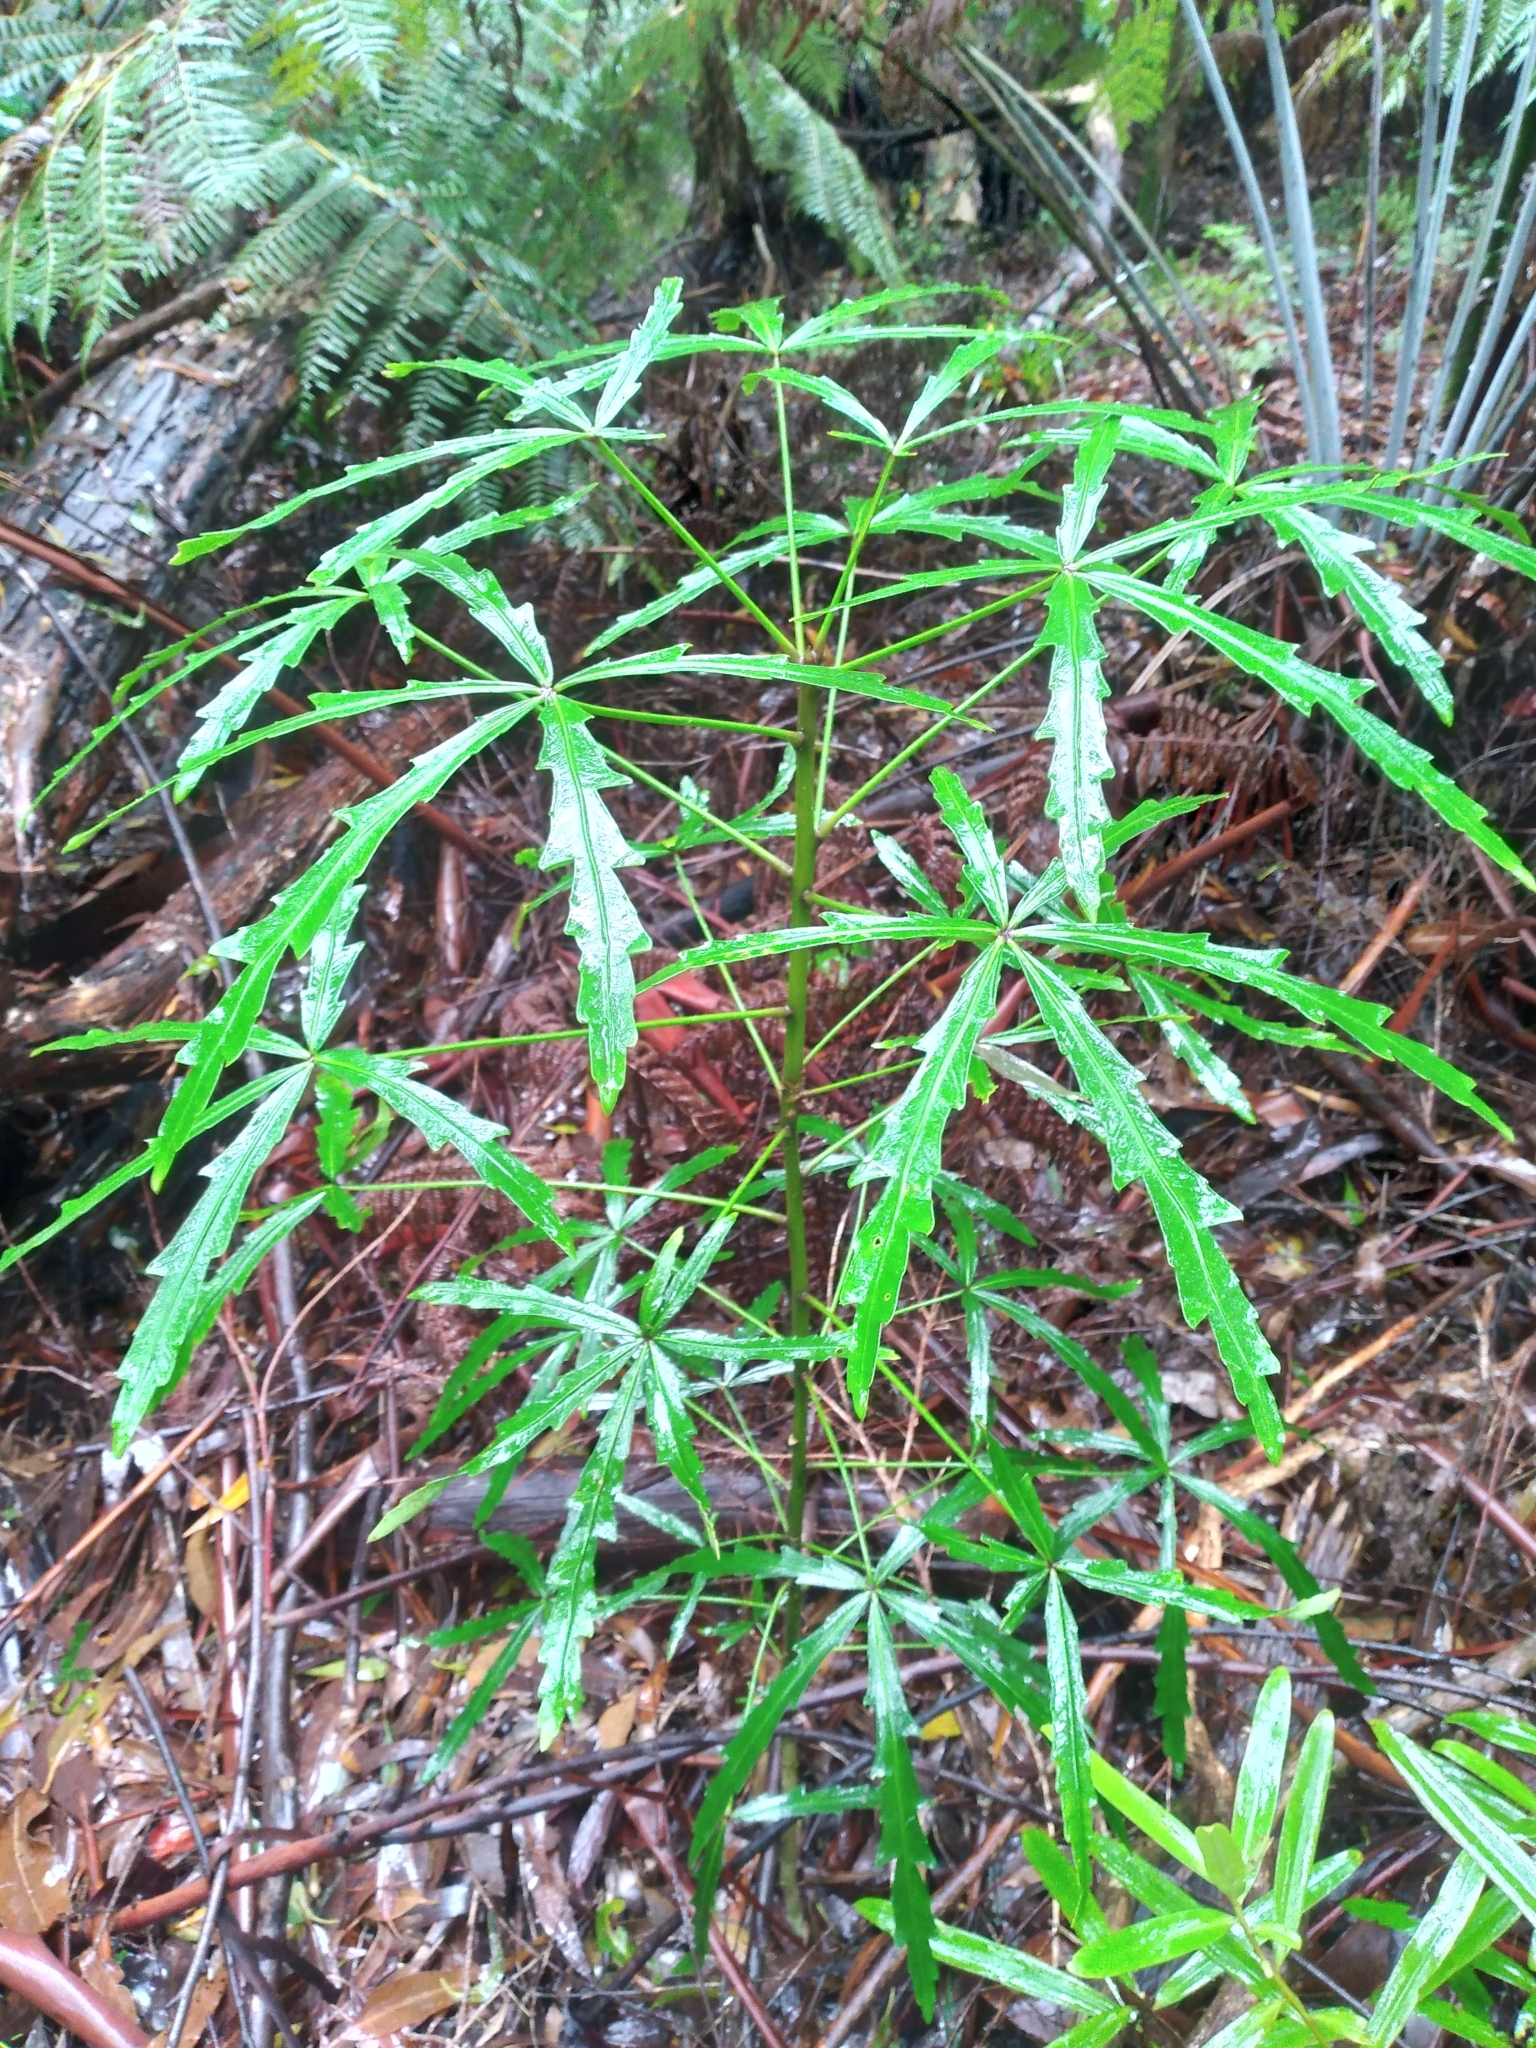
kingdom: Plantae
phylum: Tracheophyta
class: Magnoliopsida
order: Apiales
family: Araliaceae
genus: Pseudopanax
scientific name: Pseudopanax
